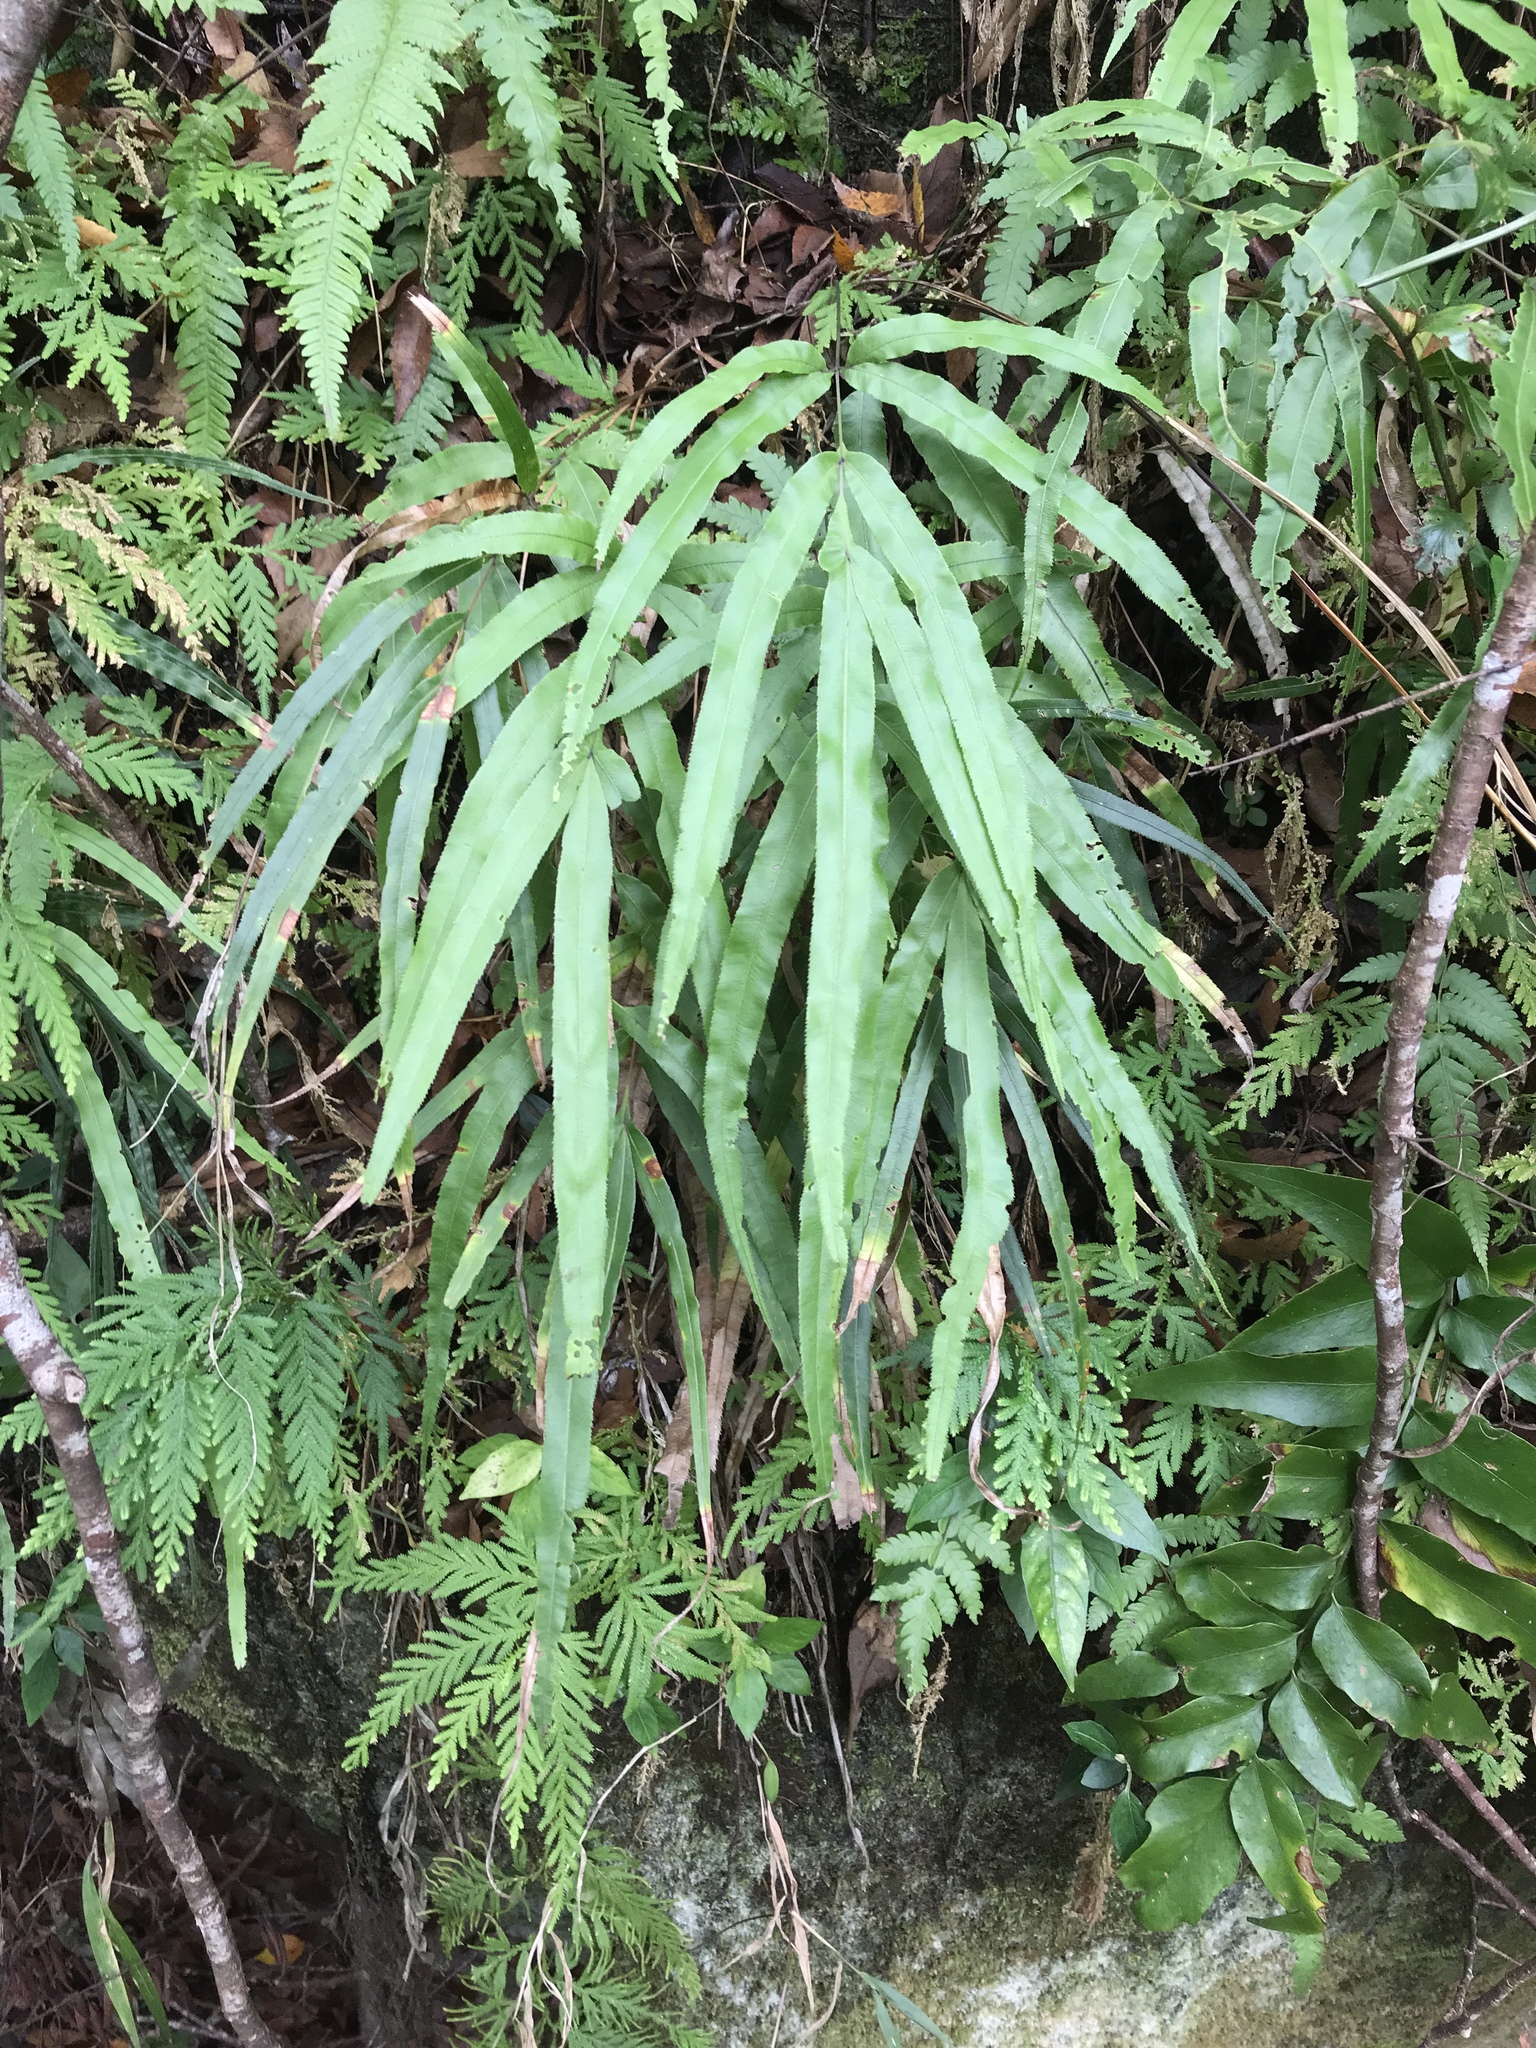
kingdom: Plantae
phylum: Tracheophyta
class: Polypodiopsida
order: Polypodiales
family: Pteridaceae
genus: Pteris
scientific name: Pteris cretica
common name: Ribbon fern
